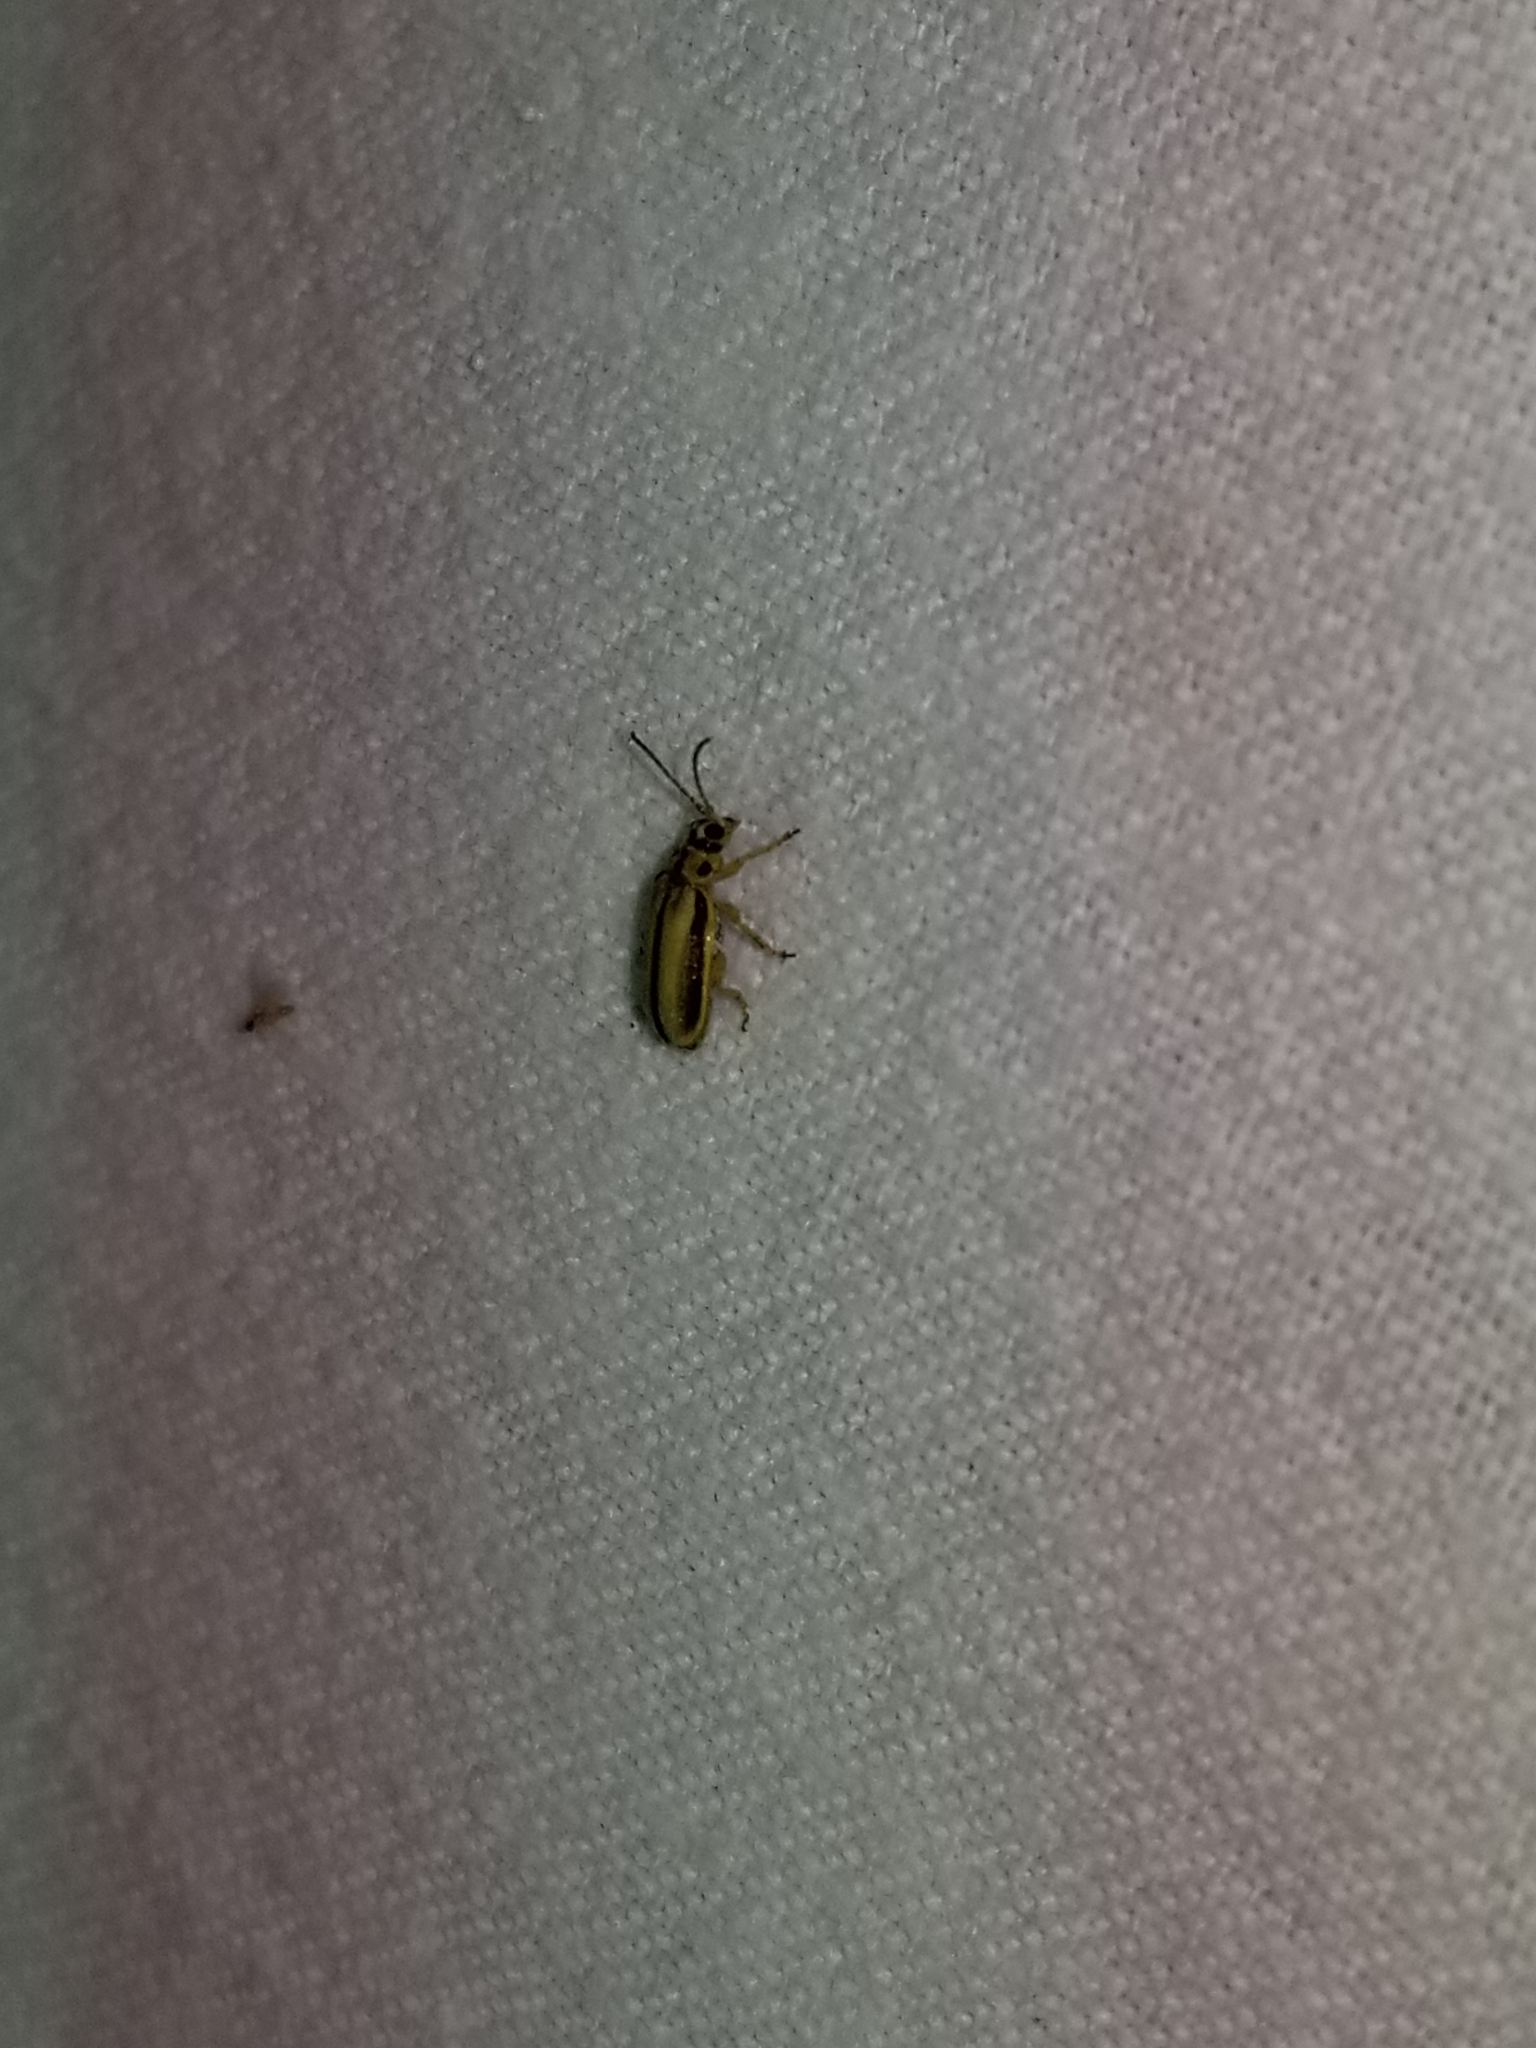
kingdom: Animalia
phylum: Arthropoda
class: Insecta
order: Coleoptera
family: Chrysomelidae
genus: Xanthogaleruca
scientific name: Xanthogaleruca luteola
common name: Elm leaf beetle
